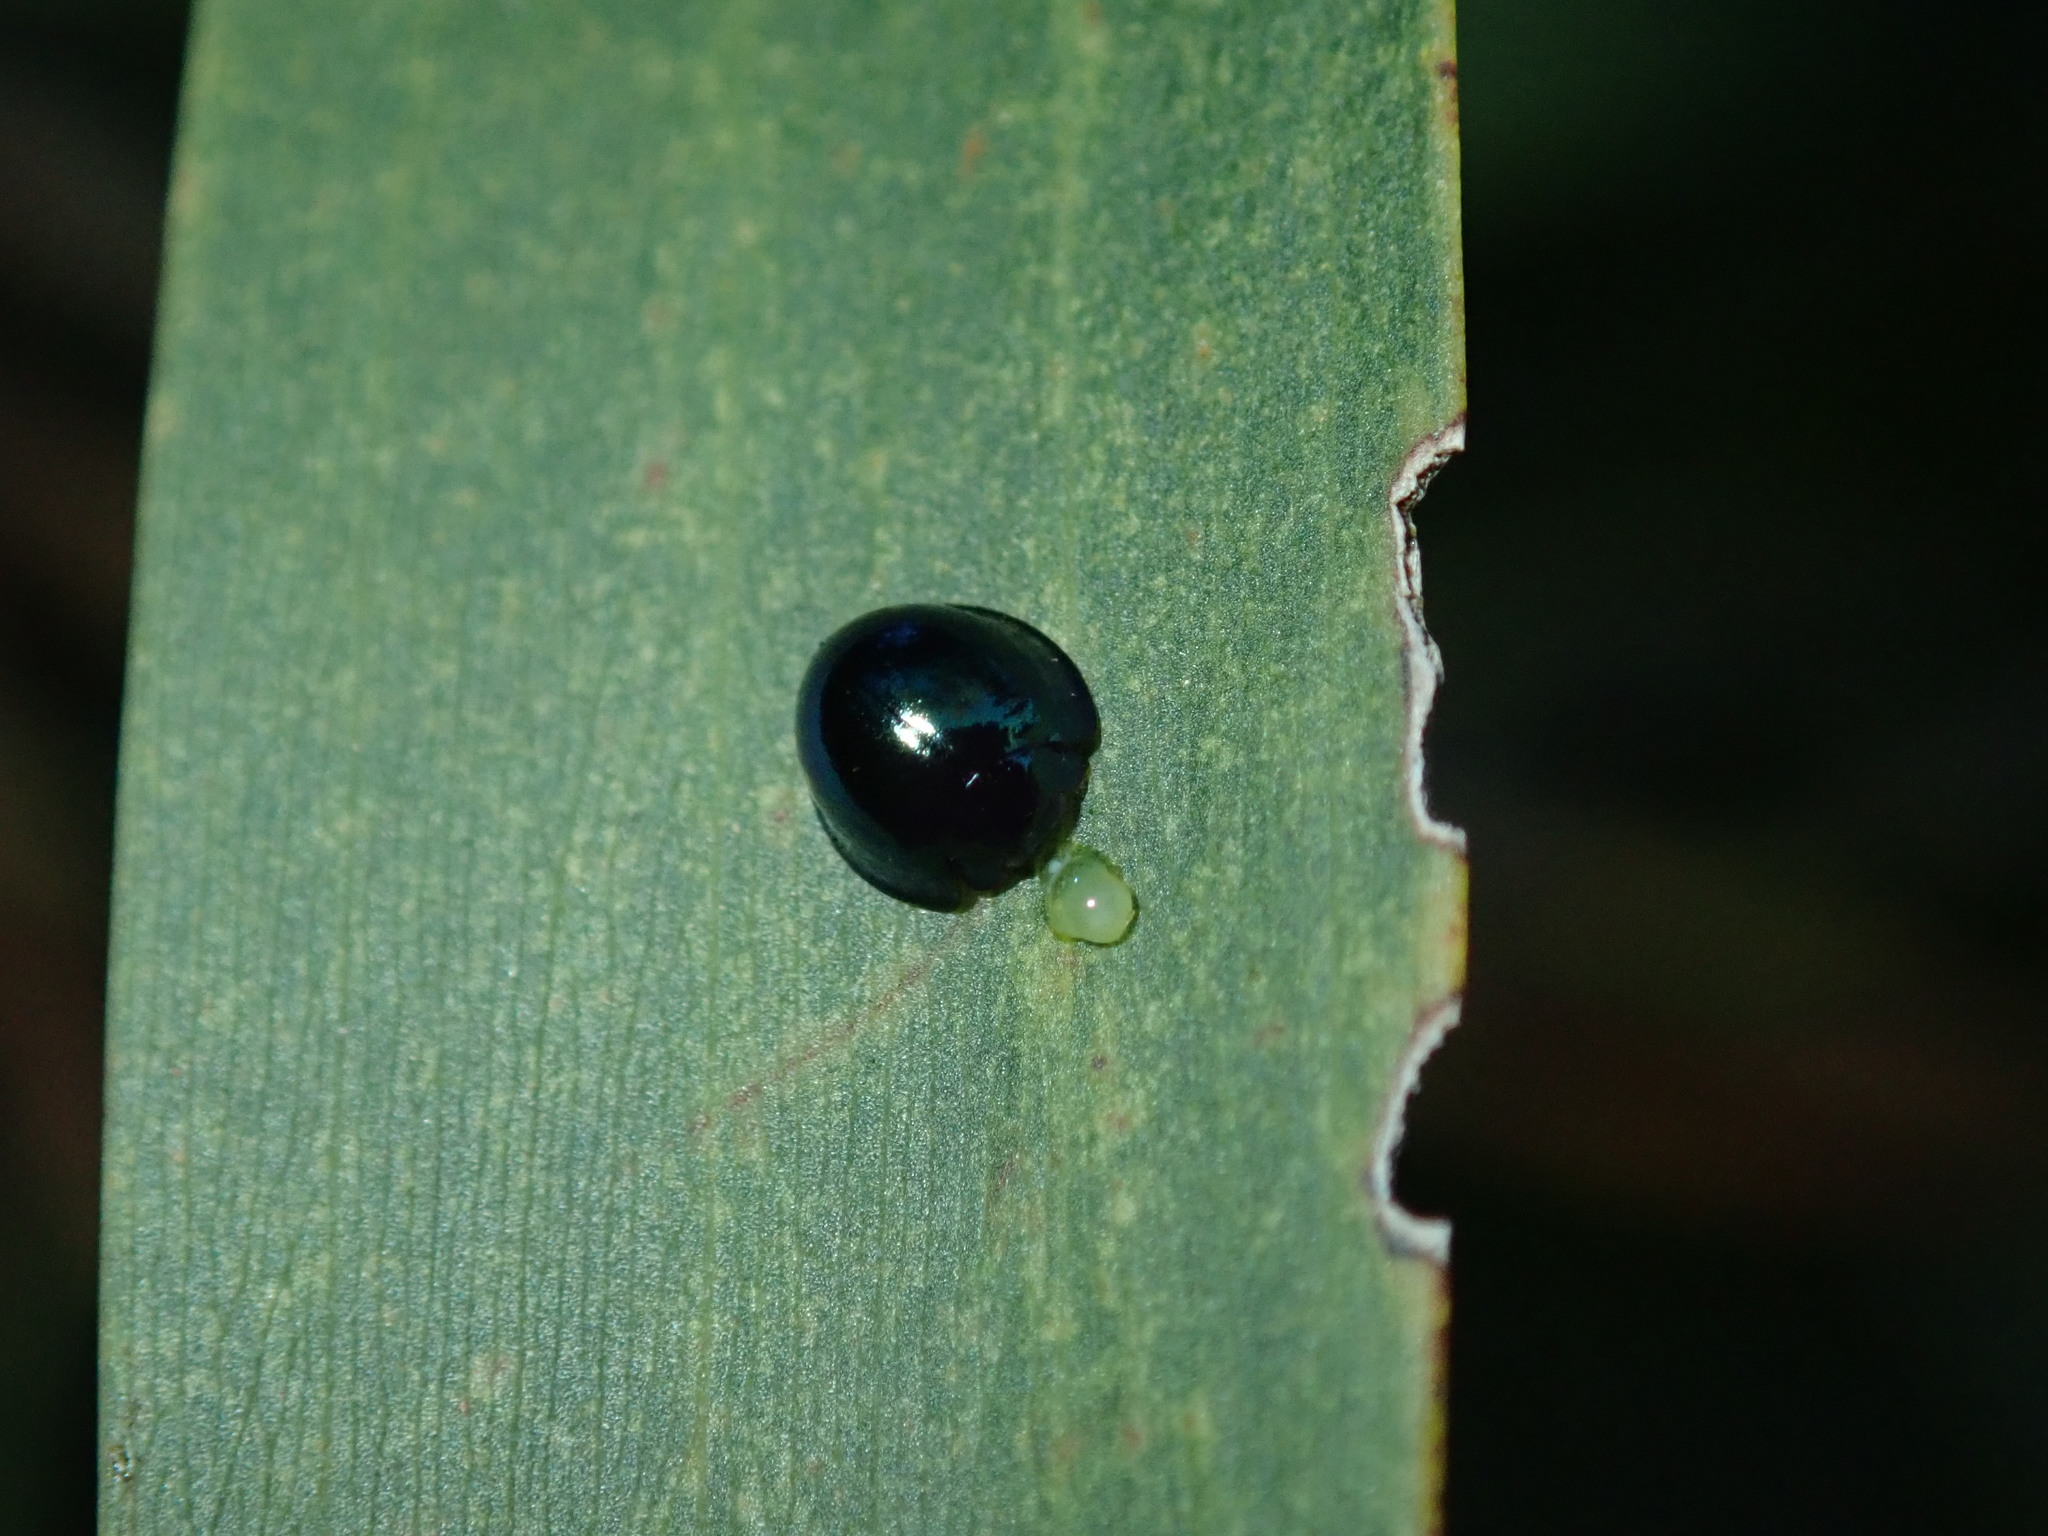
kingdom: Animalia
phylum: Arthropoda
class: Insecta
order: Coleoptera
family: Coccinellidae
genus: Halmus
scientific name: Halmus chalybeus
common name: Steel blue ladybird beetle
